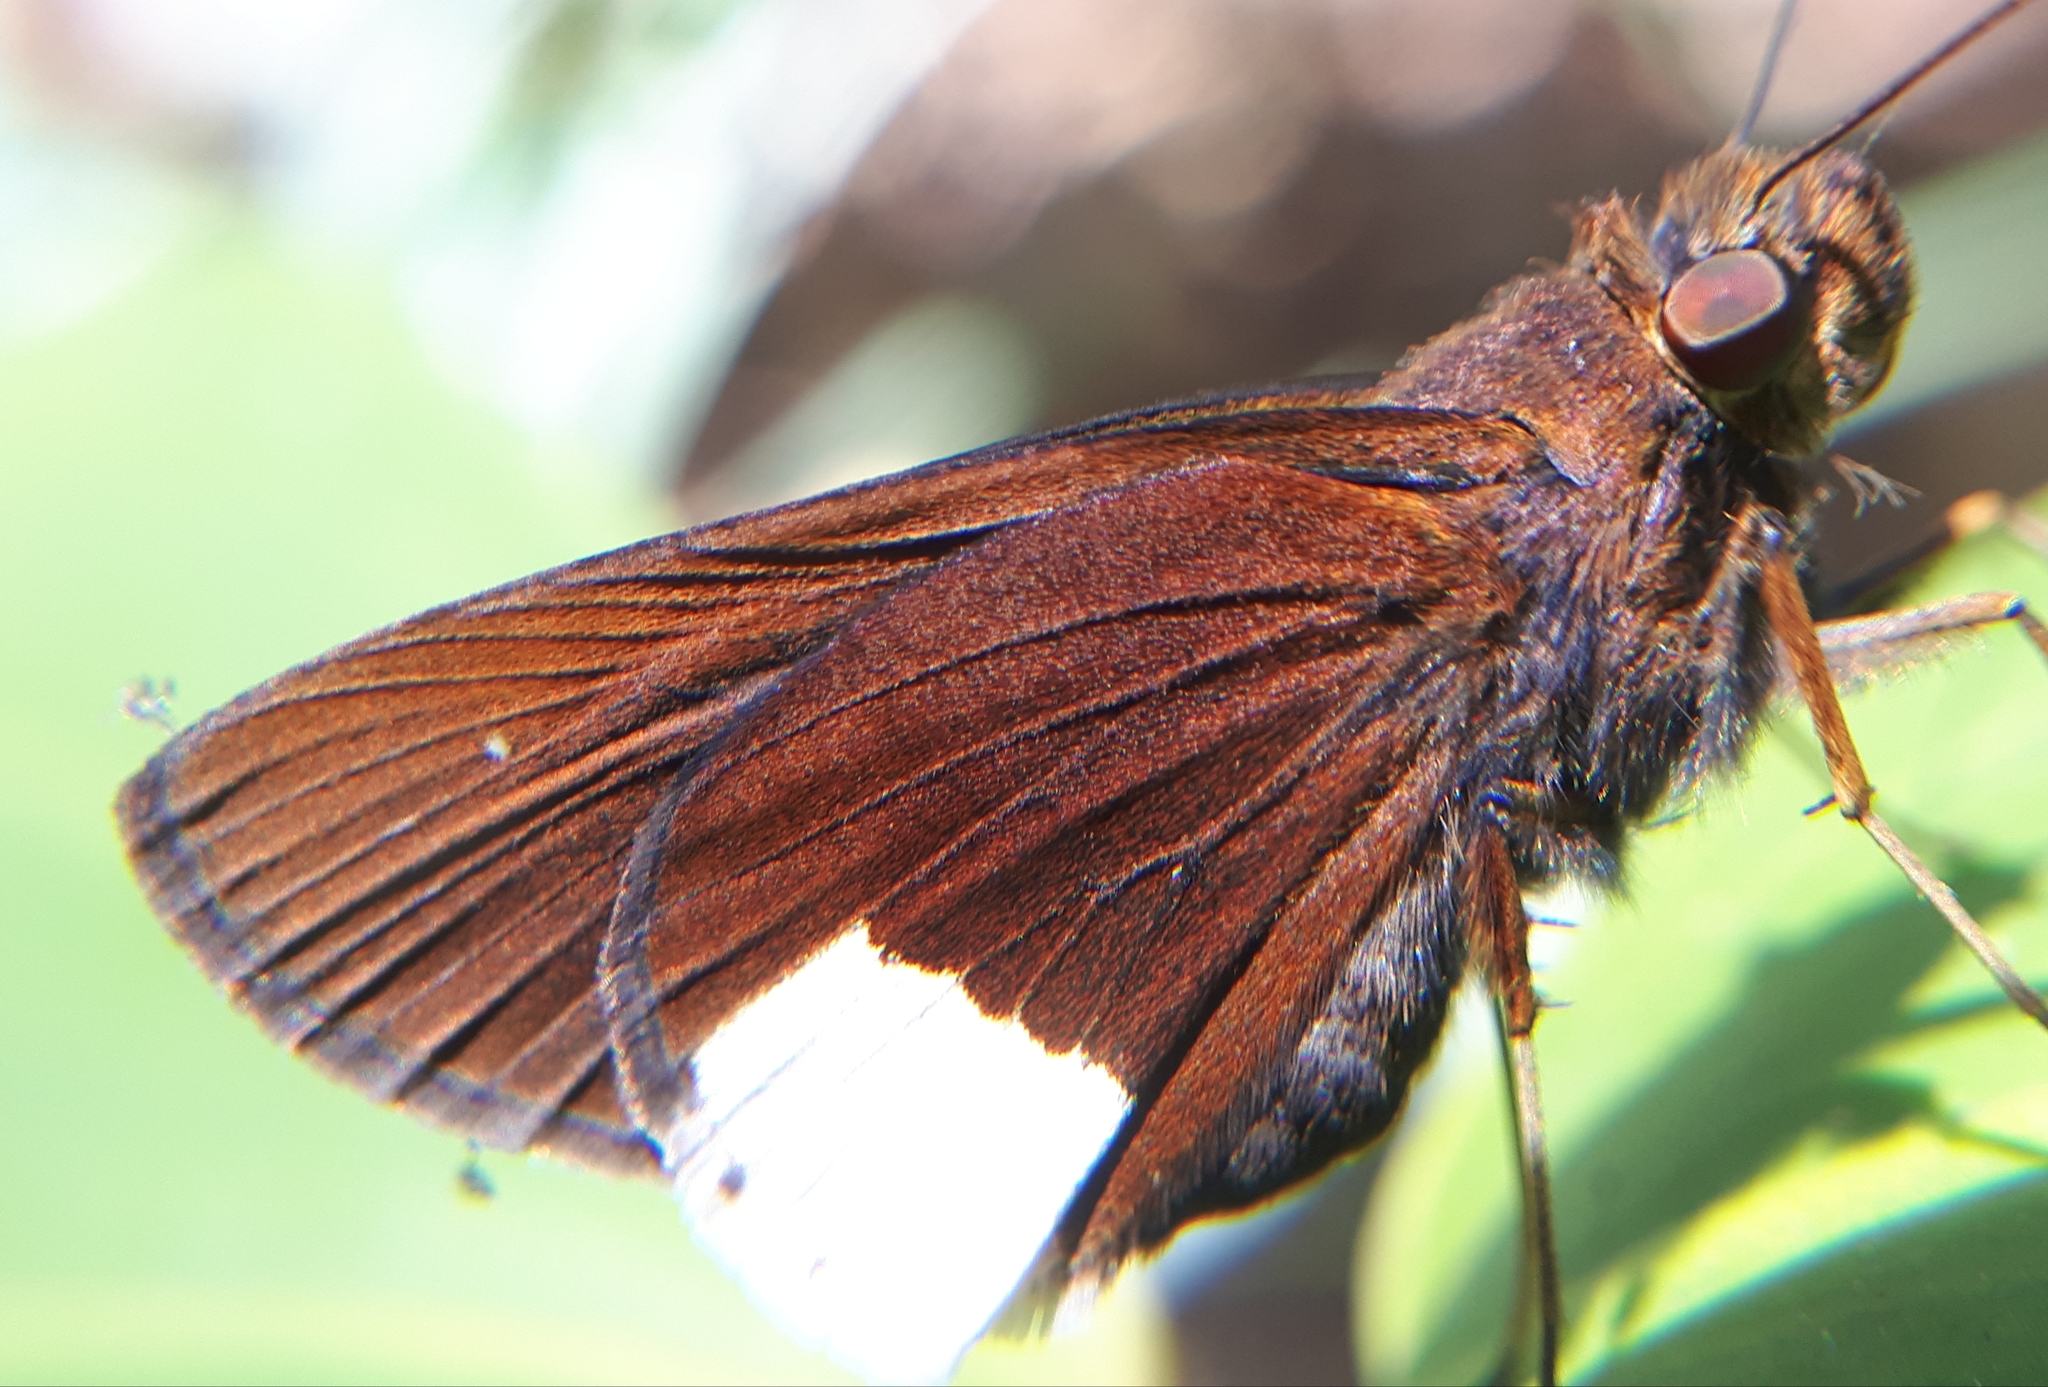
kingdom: Animalia
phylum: Arthropoda
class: Insecta
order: Lepidoptera
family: Hesperiidae
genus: Cobalus
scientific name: Cobalus virbius
